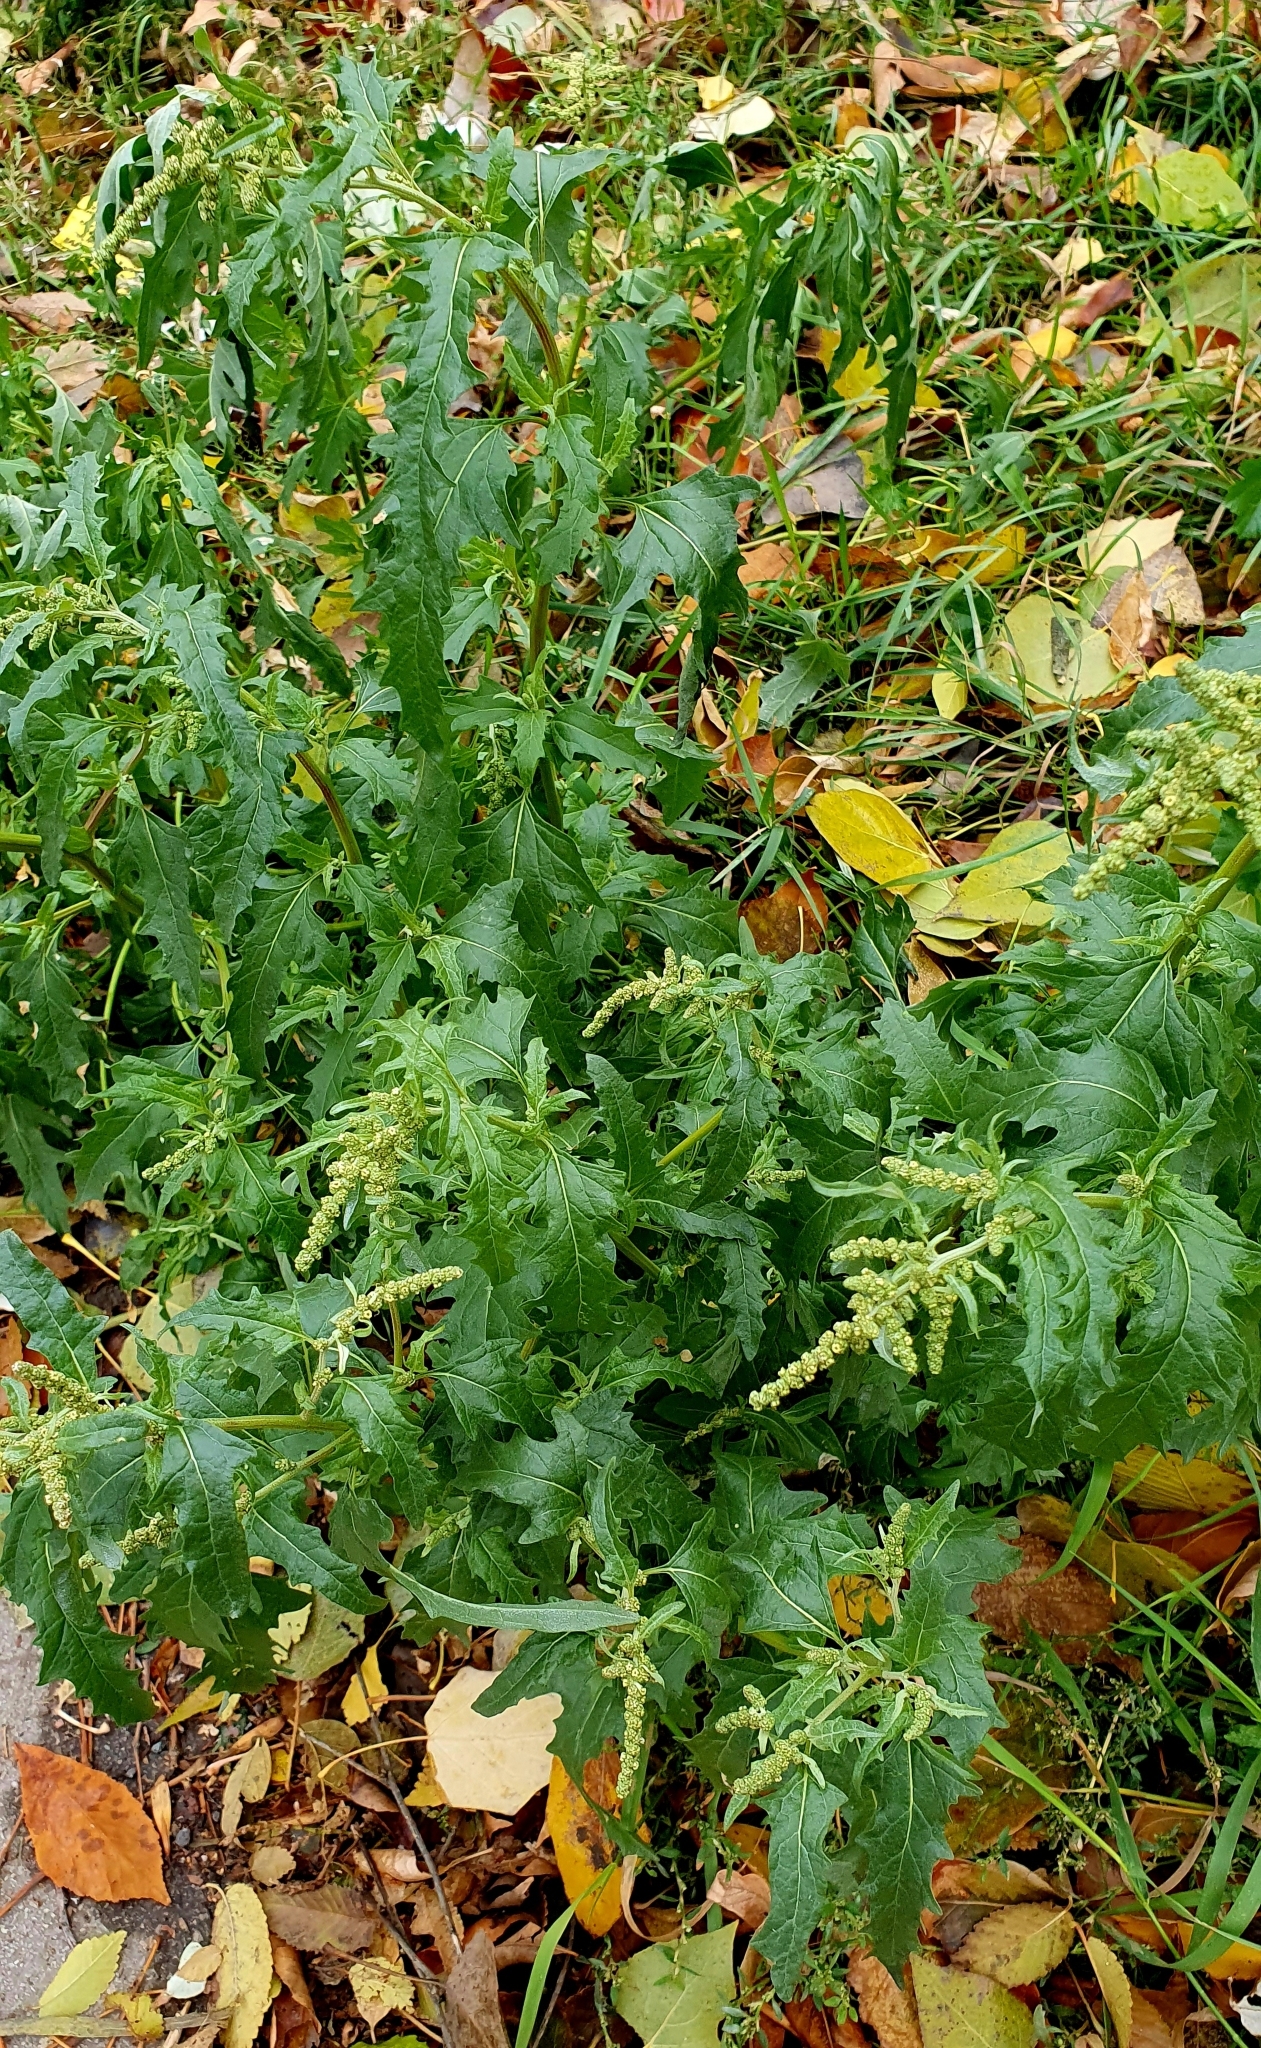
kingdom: Plantae
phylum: Tracheophyta
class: Magnoliopsida
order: Caryophyllales
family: Amaranthaceae
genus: Atriplex
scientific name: Atriplex tatarica
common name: Tatarian orache
